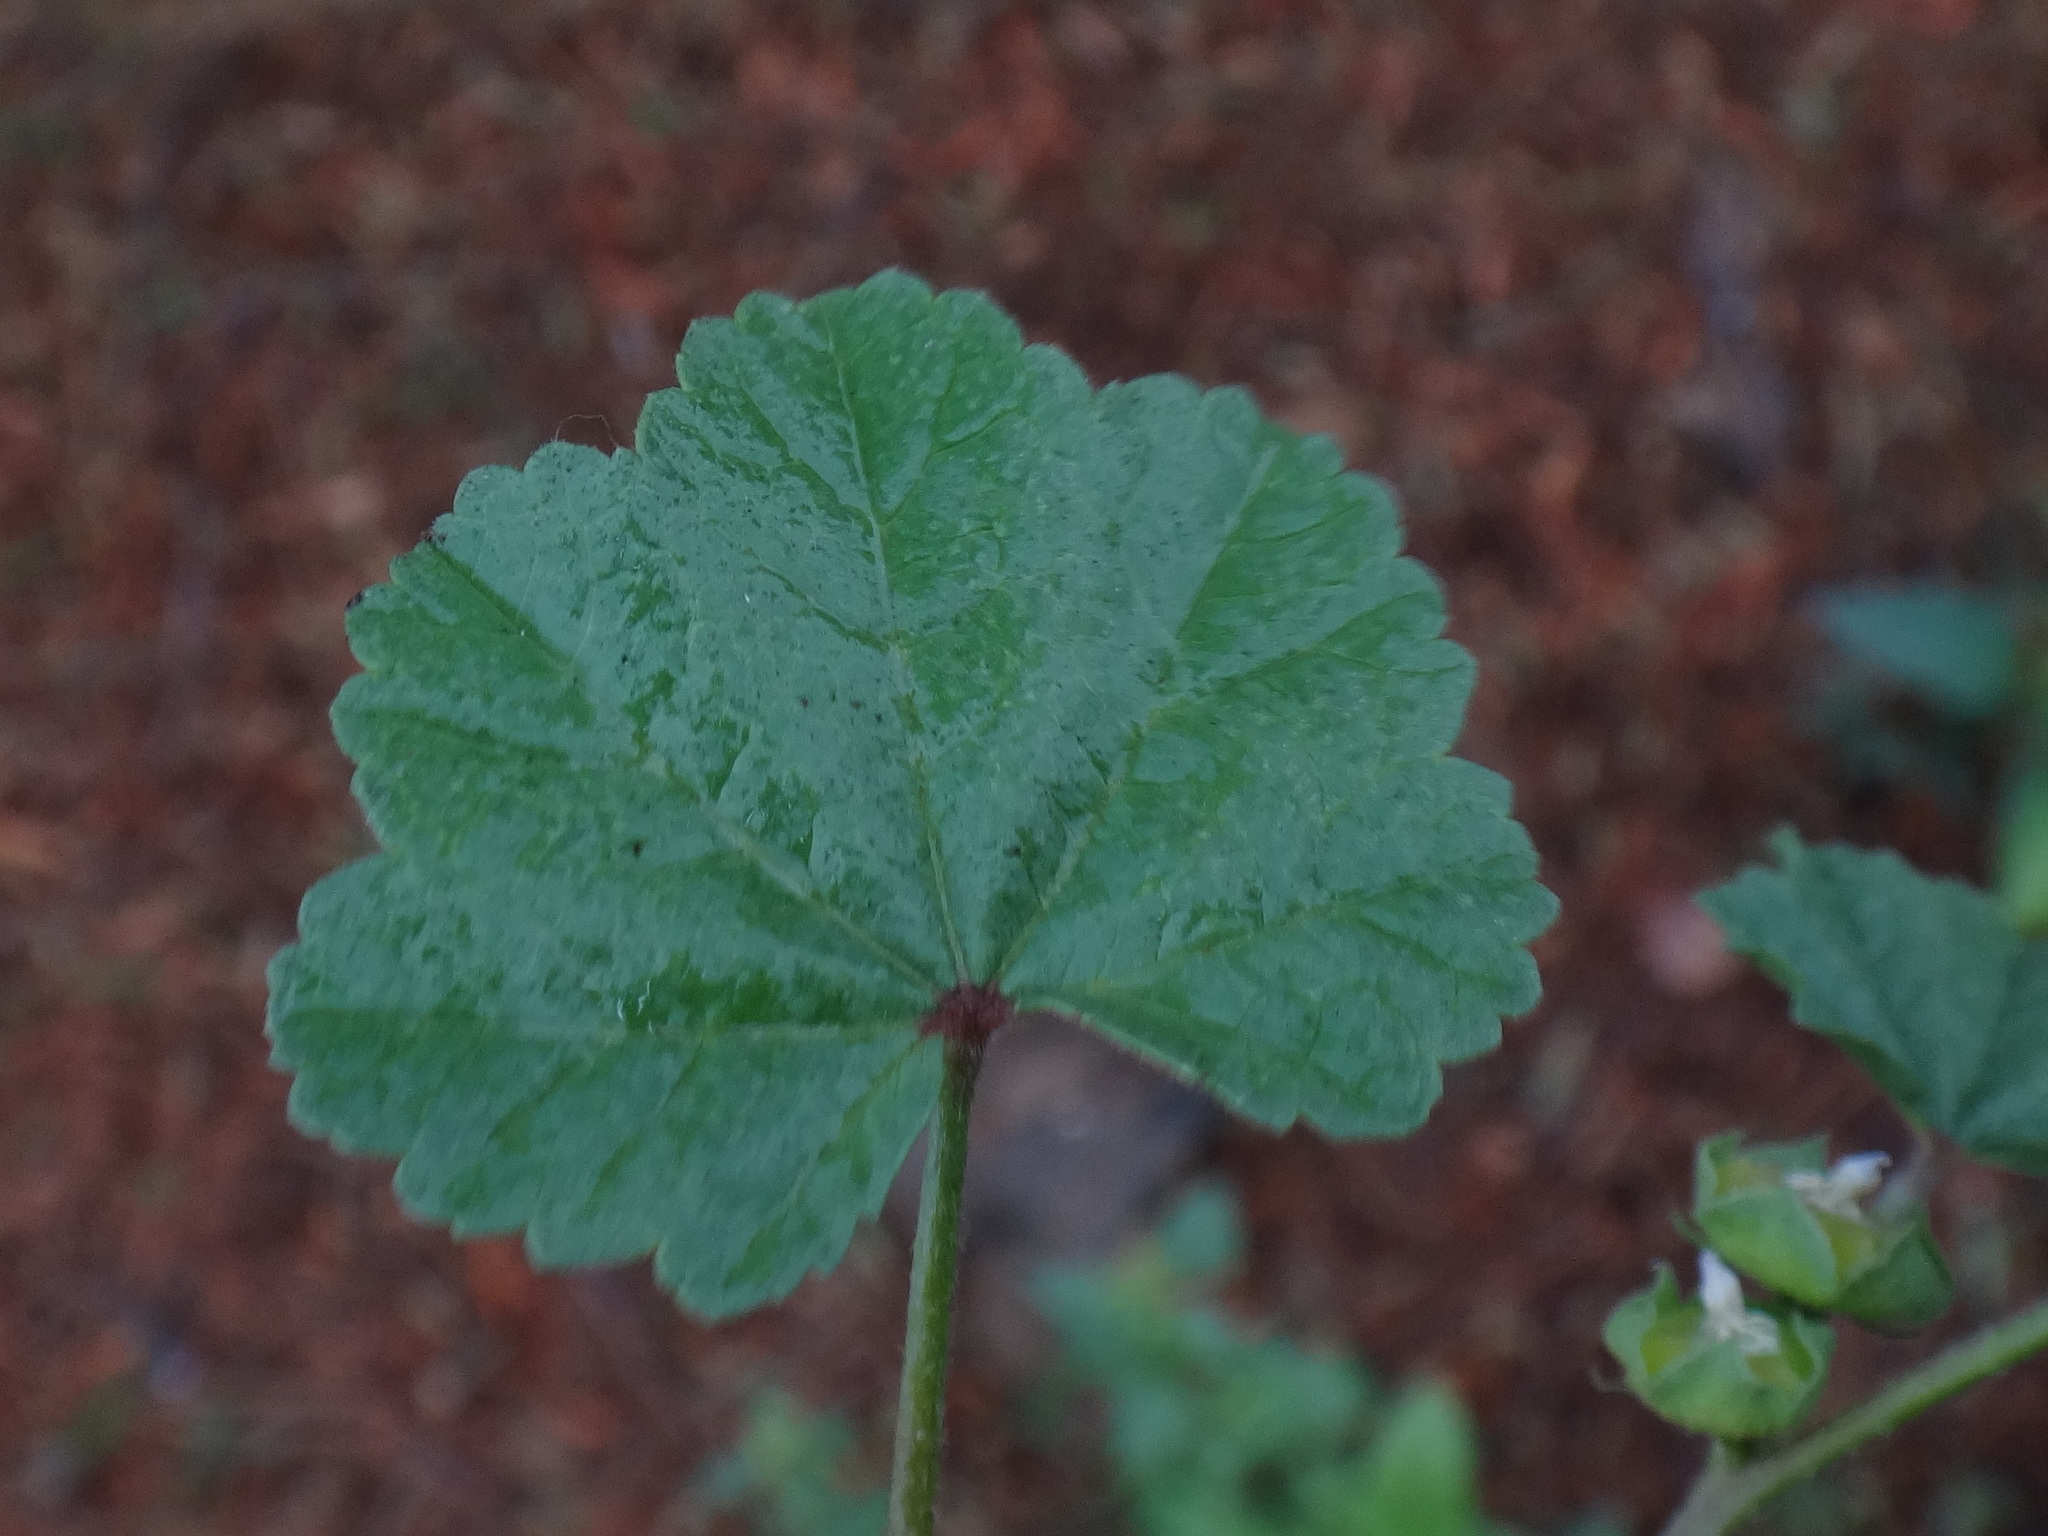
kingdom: Plantae
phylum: Tracheophyta
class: Magnoliopsida
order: Malvales
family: Malvaceae
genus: Malva
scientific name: Malva parviflora
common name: Least mallow
